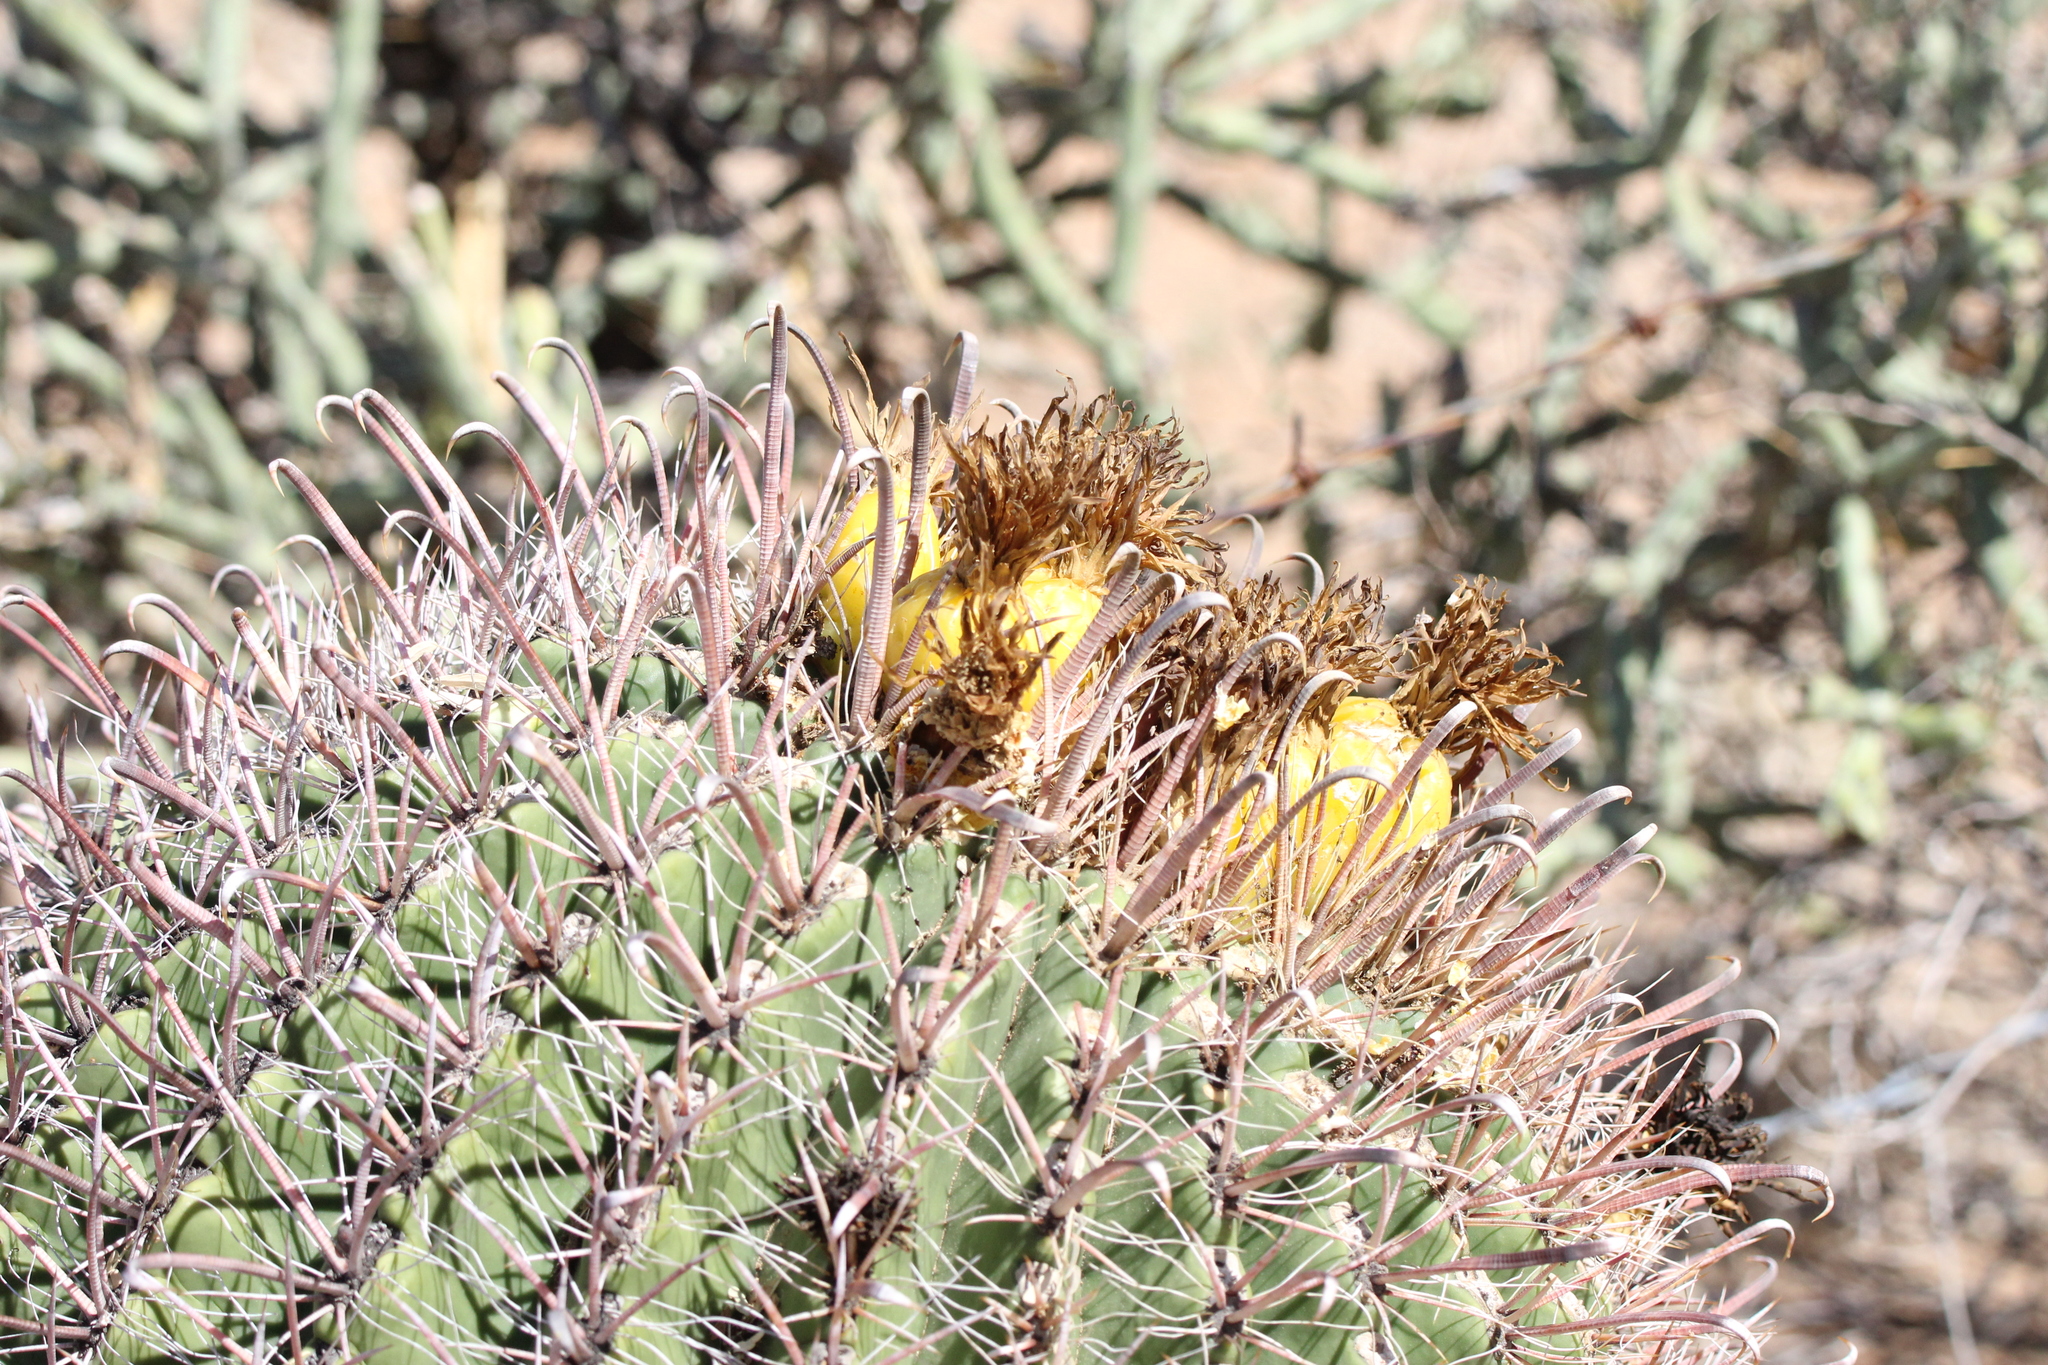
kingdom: Plantae
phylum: Tracheophyta
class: Magnoliopsida
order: Caryophyllales
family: Cactaceae
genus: Ferocactus
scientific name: Ferocactus wislizeni
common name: Candy barrel cactus
